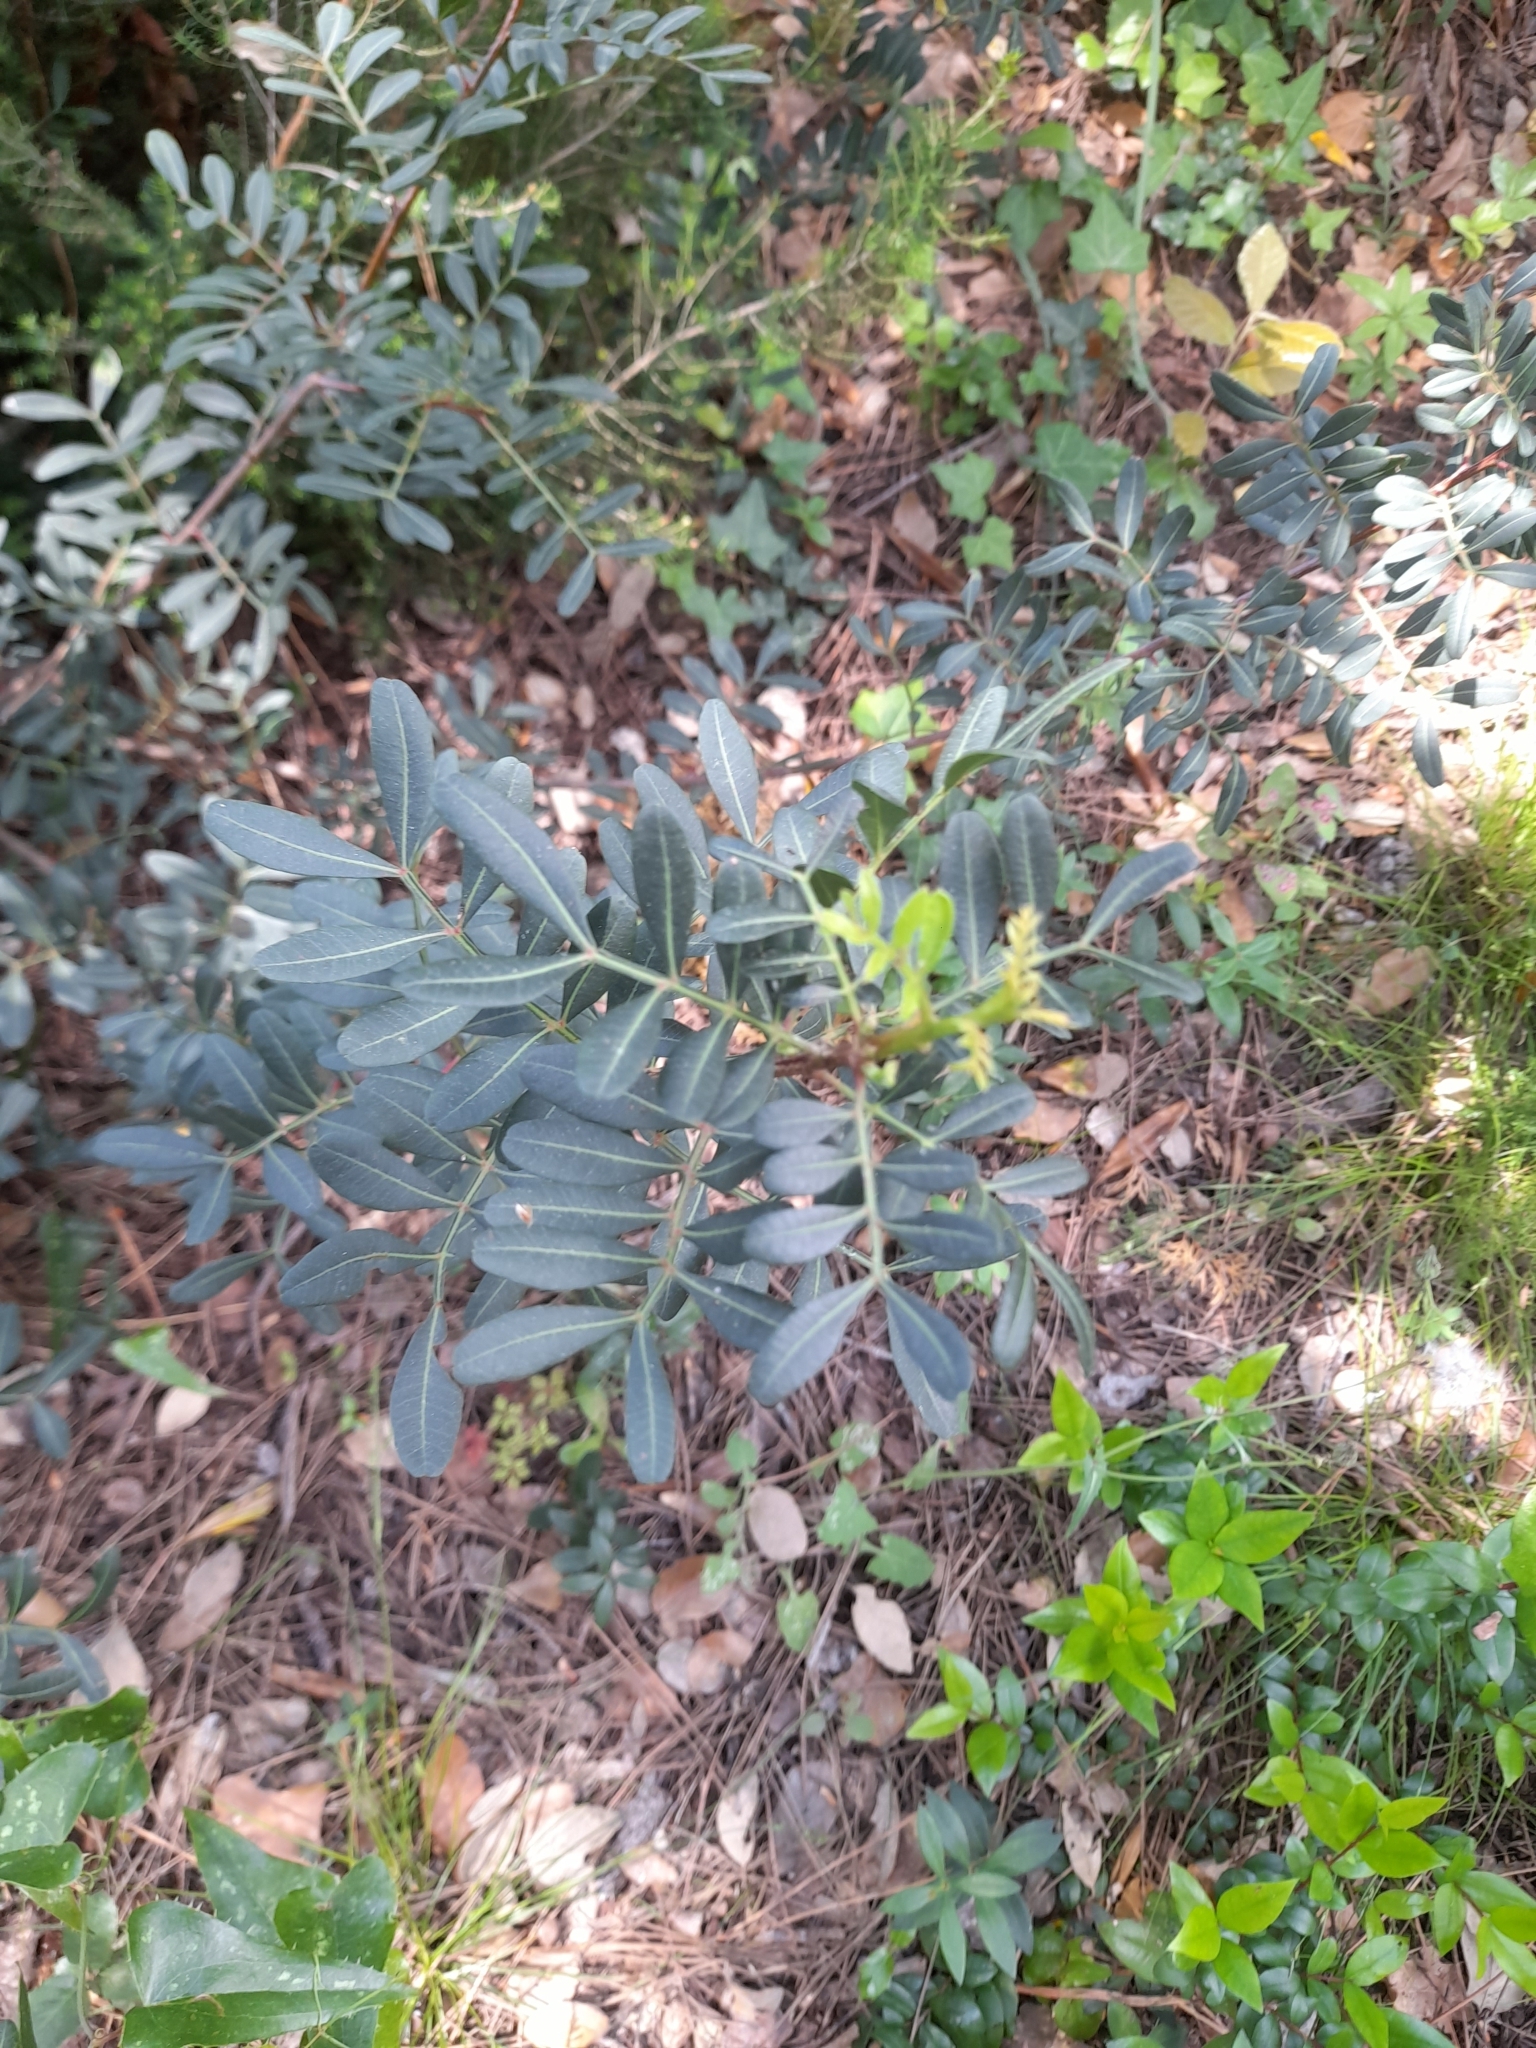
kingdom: Plantae
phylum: Tracheophyta
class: Magnoliopsida
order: Sapindales
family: Anacardiaceae
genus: Pistacia
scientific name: Pistacia lentiscus
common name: Lentisk
